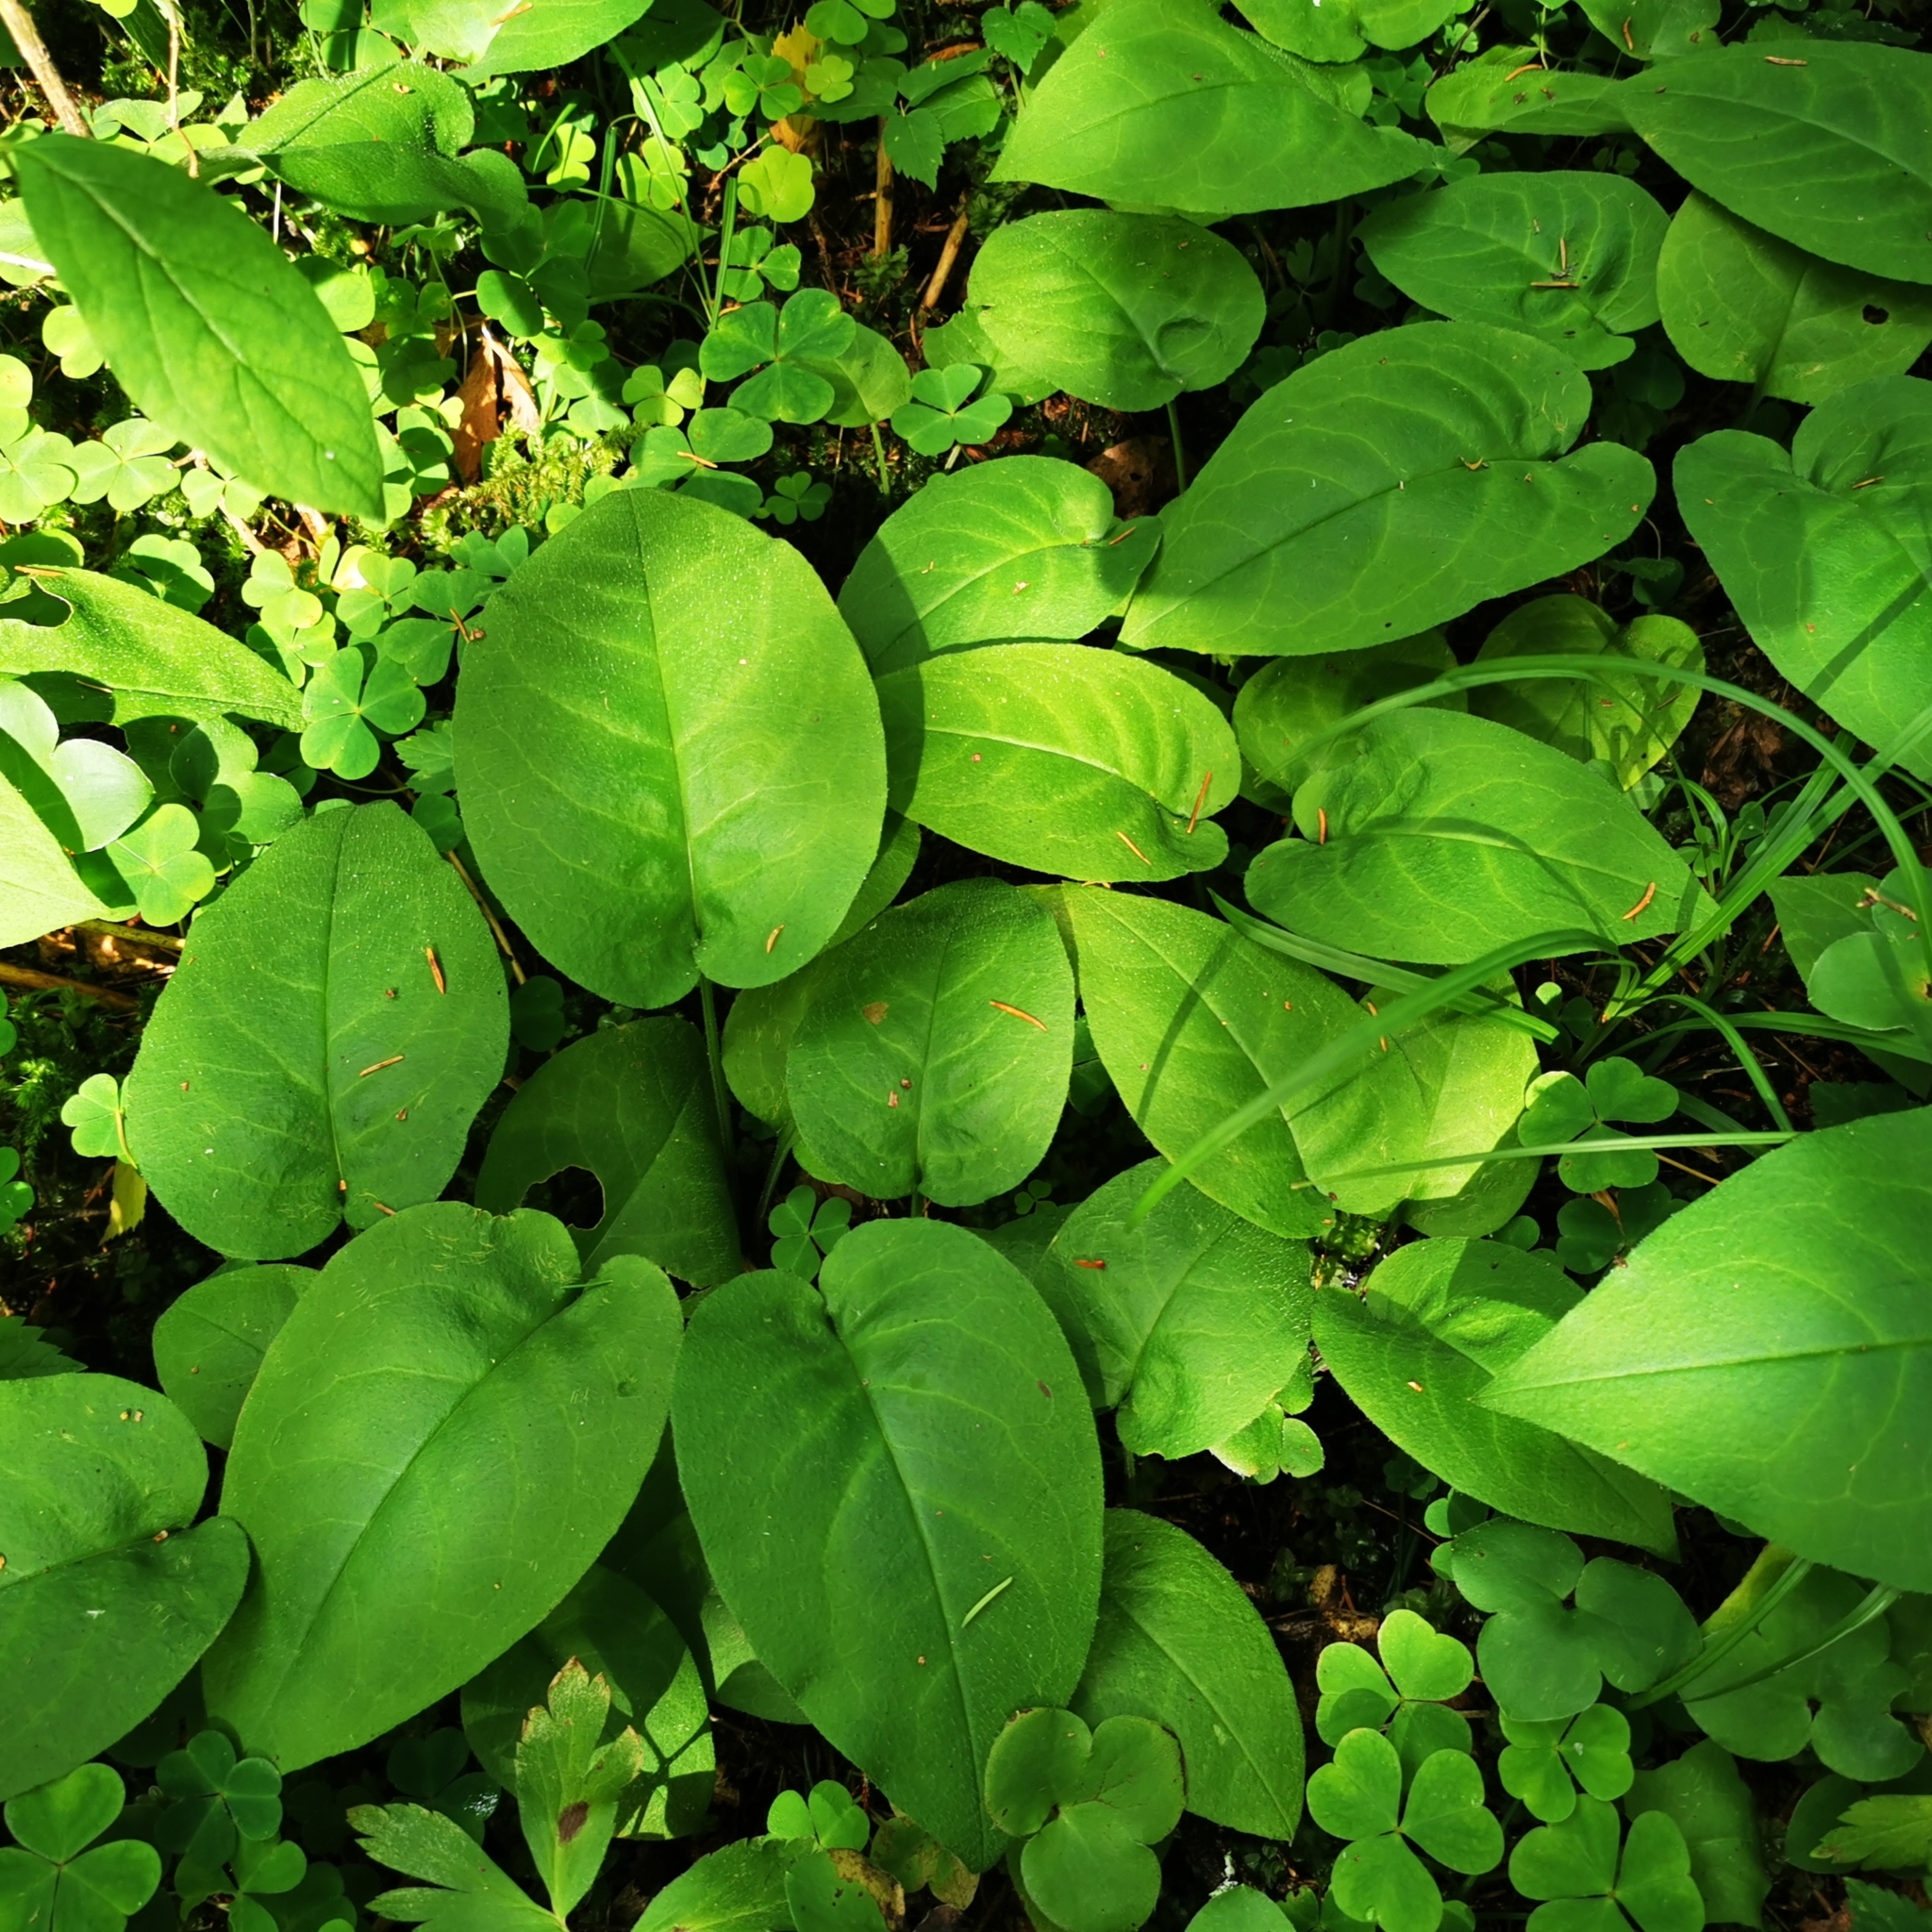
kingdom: Plantae
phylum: Tracheophyta
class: Magnoliopsida
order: Boraginales
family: Boraginaceae
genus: Pulmonaria
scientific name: Pulmonaria obscura
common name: Suffolk lungwort
